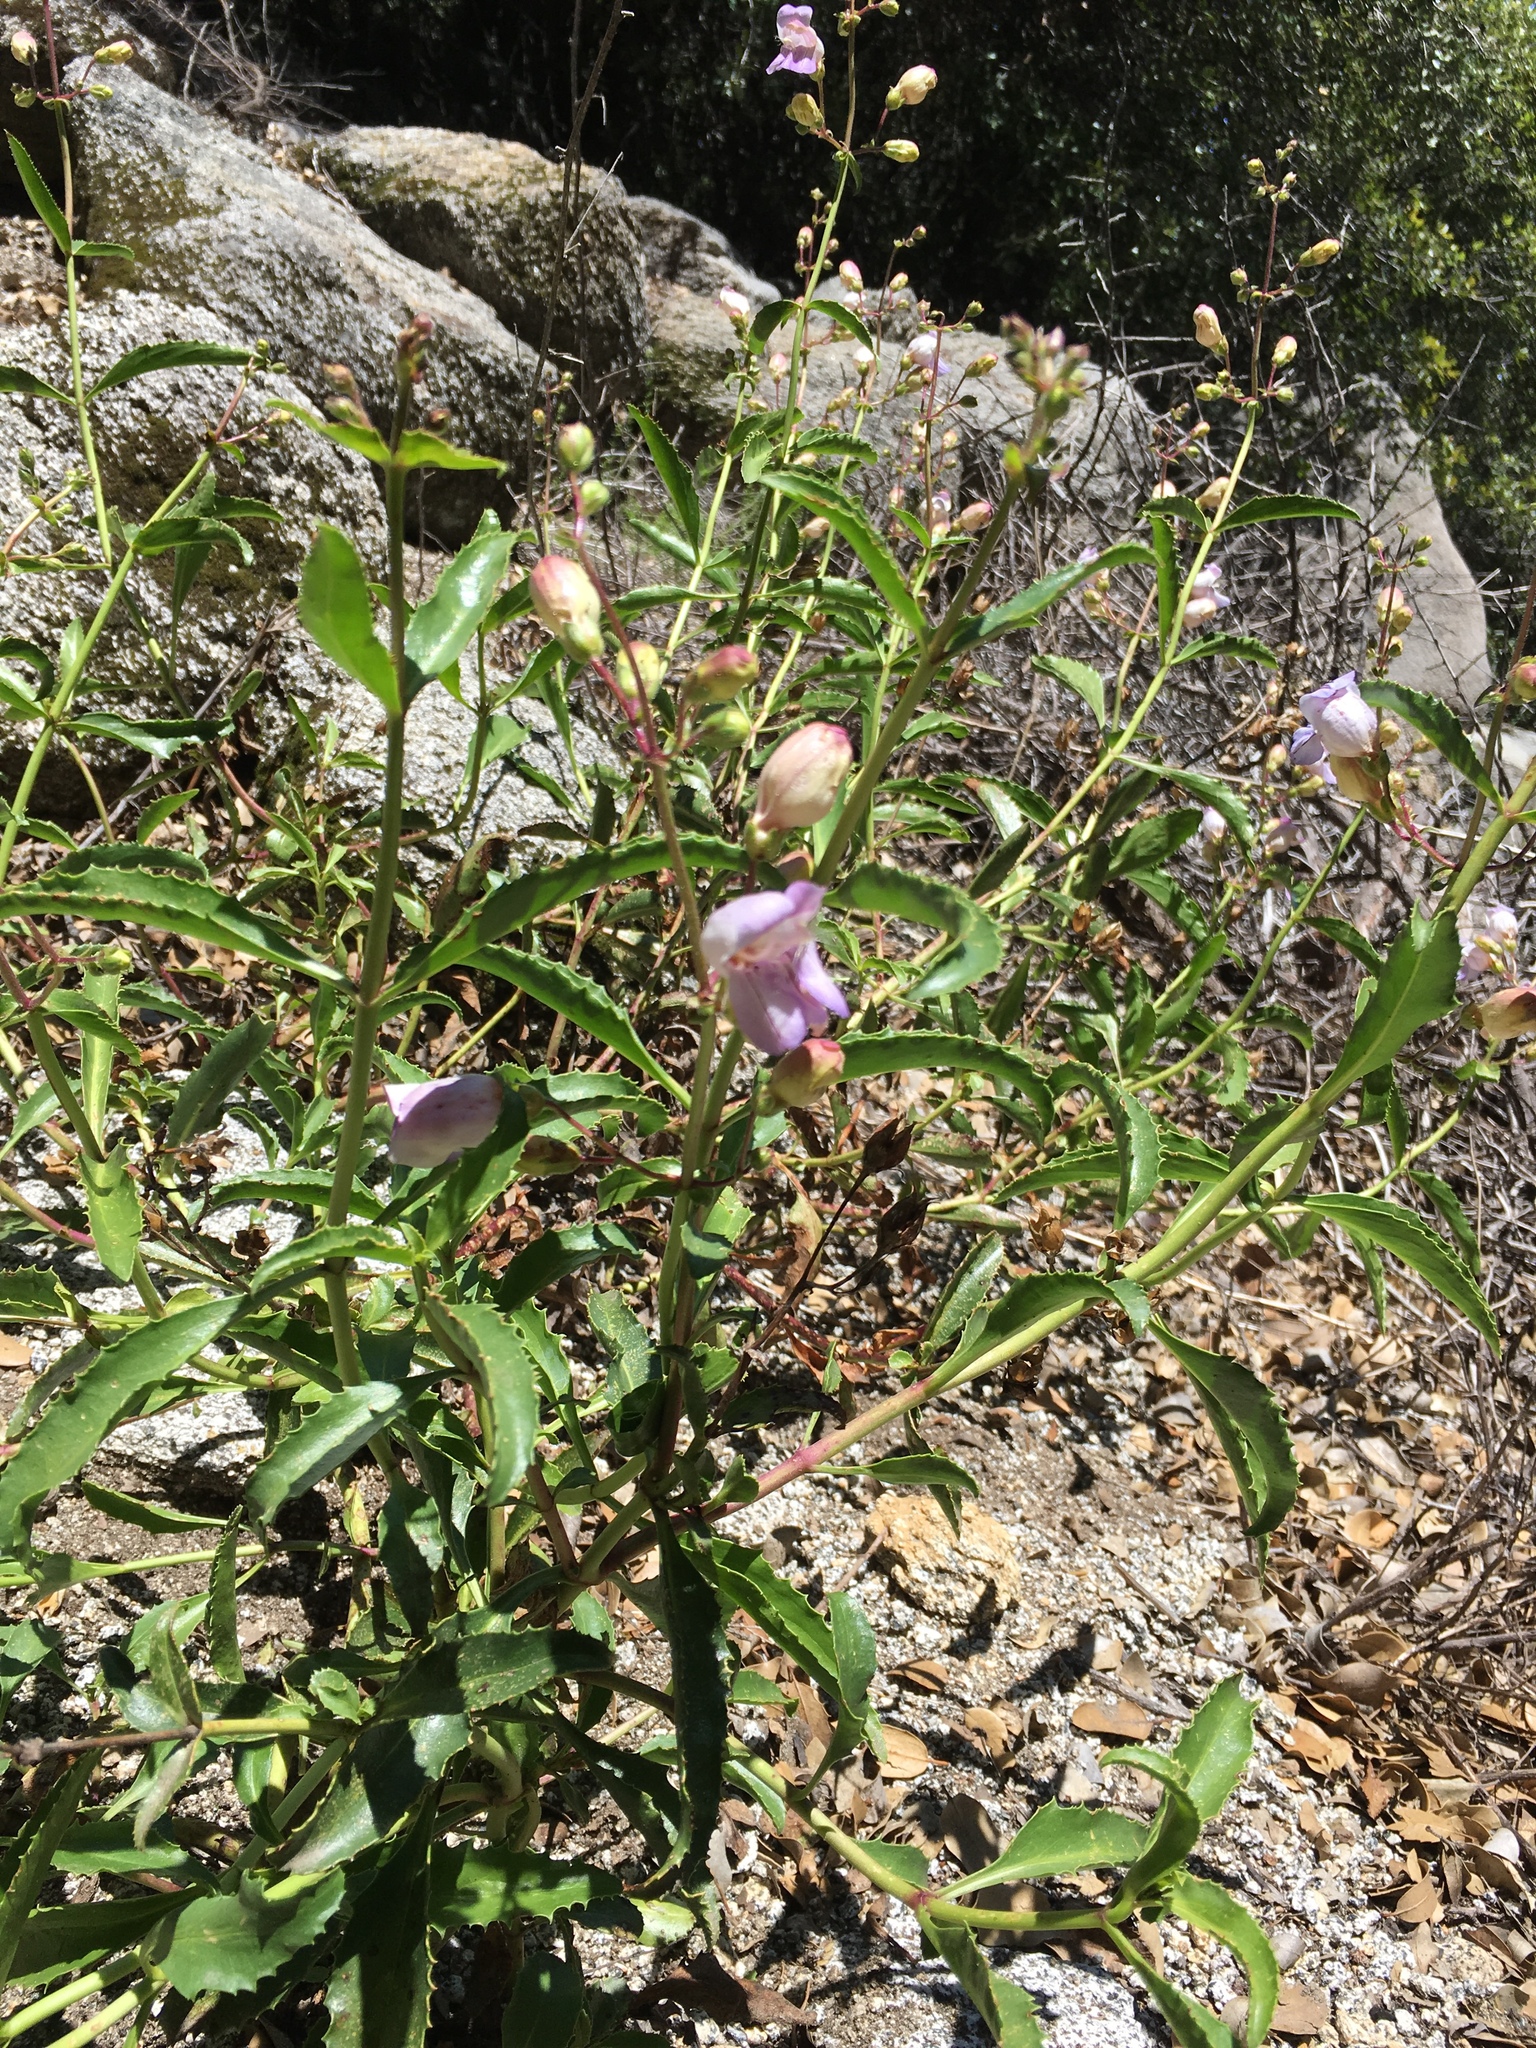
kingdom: Plantae
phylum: Tracheophyta
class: Magnoliopsida
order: Lamiales
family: Plantaginaceae
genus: Penstemon
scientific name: Penstemon grinnellii
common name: Grinnell's beardtongue
